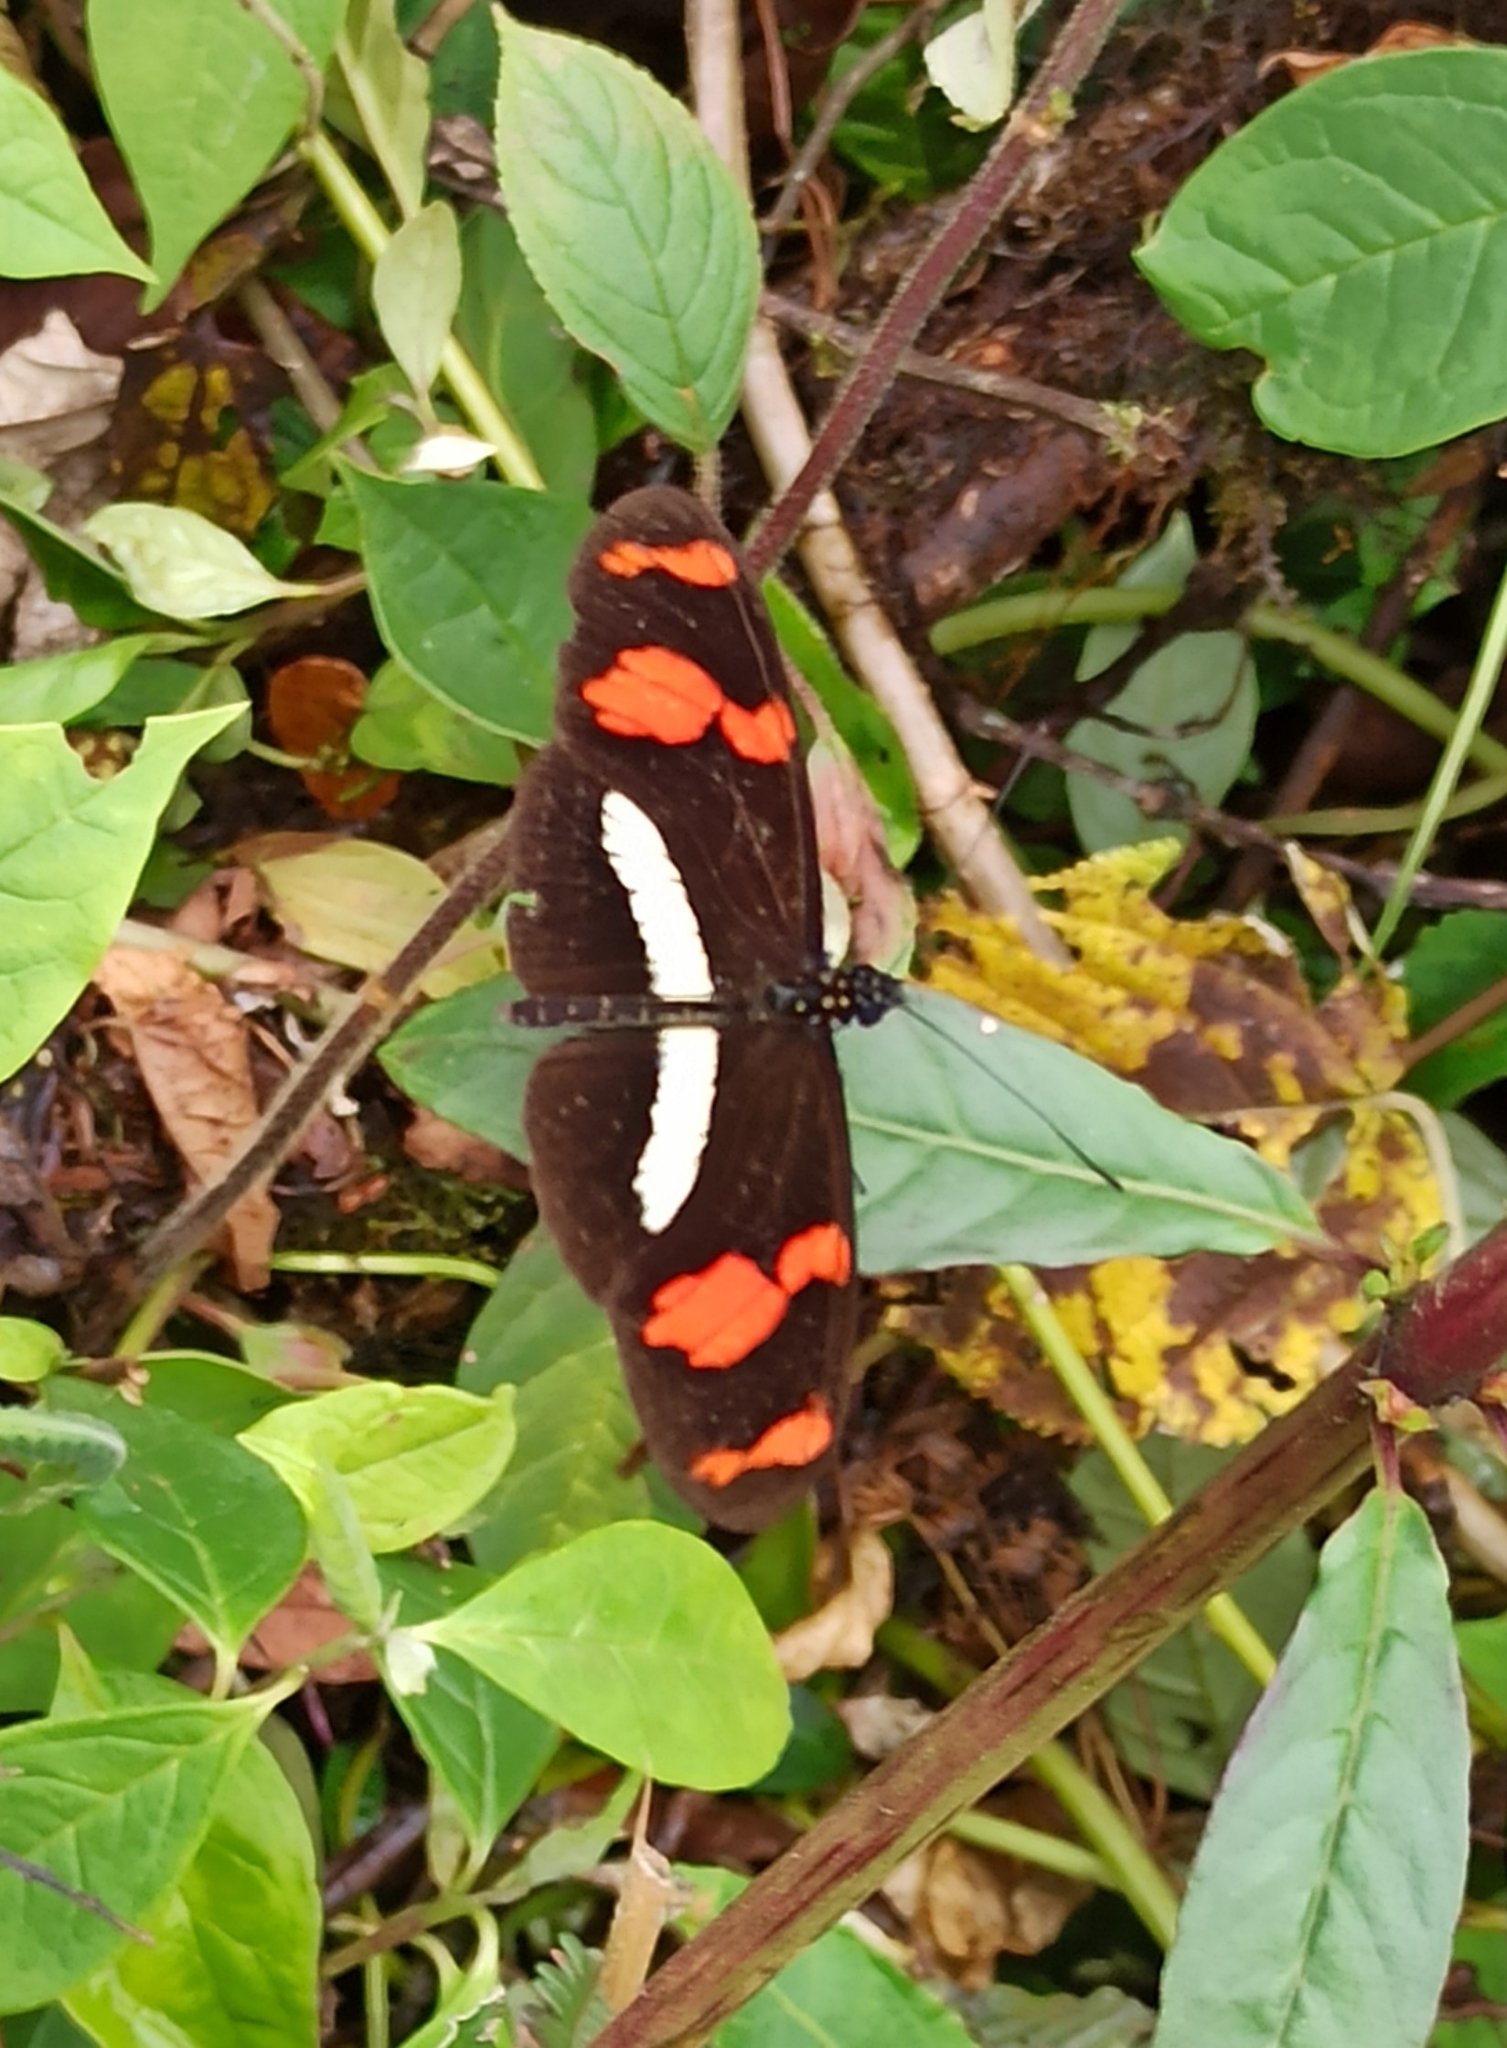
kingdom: Animalia
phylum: Arthropoda
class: Insecta
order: Lepidoptera
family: Nymphalidae
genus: Heliconius
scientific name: Heliconius telesiphe
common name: Telesiphe longwing
